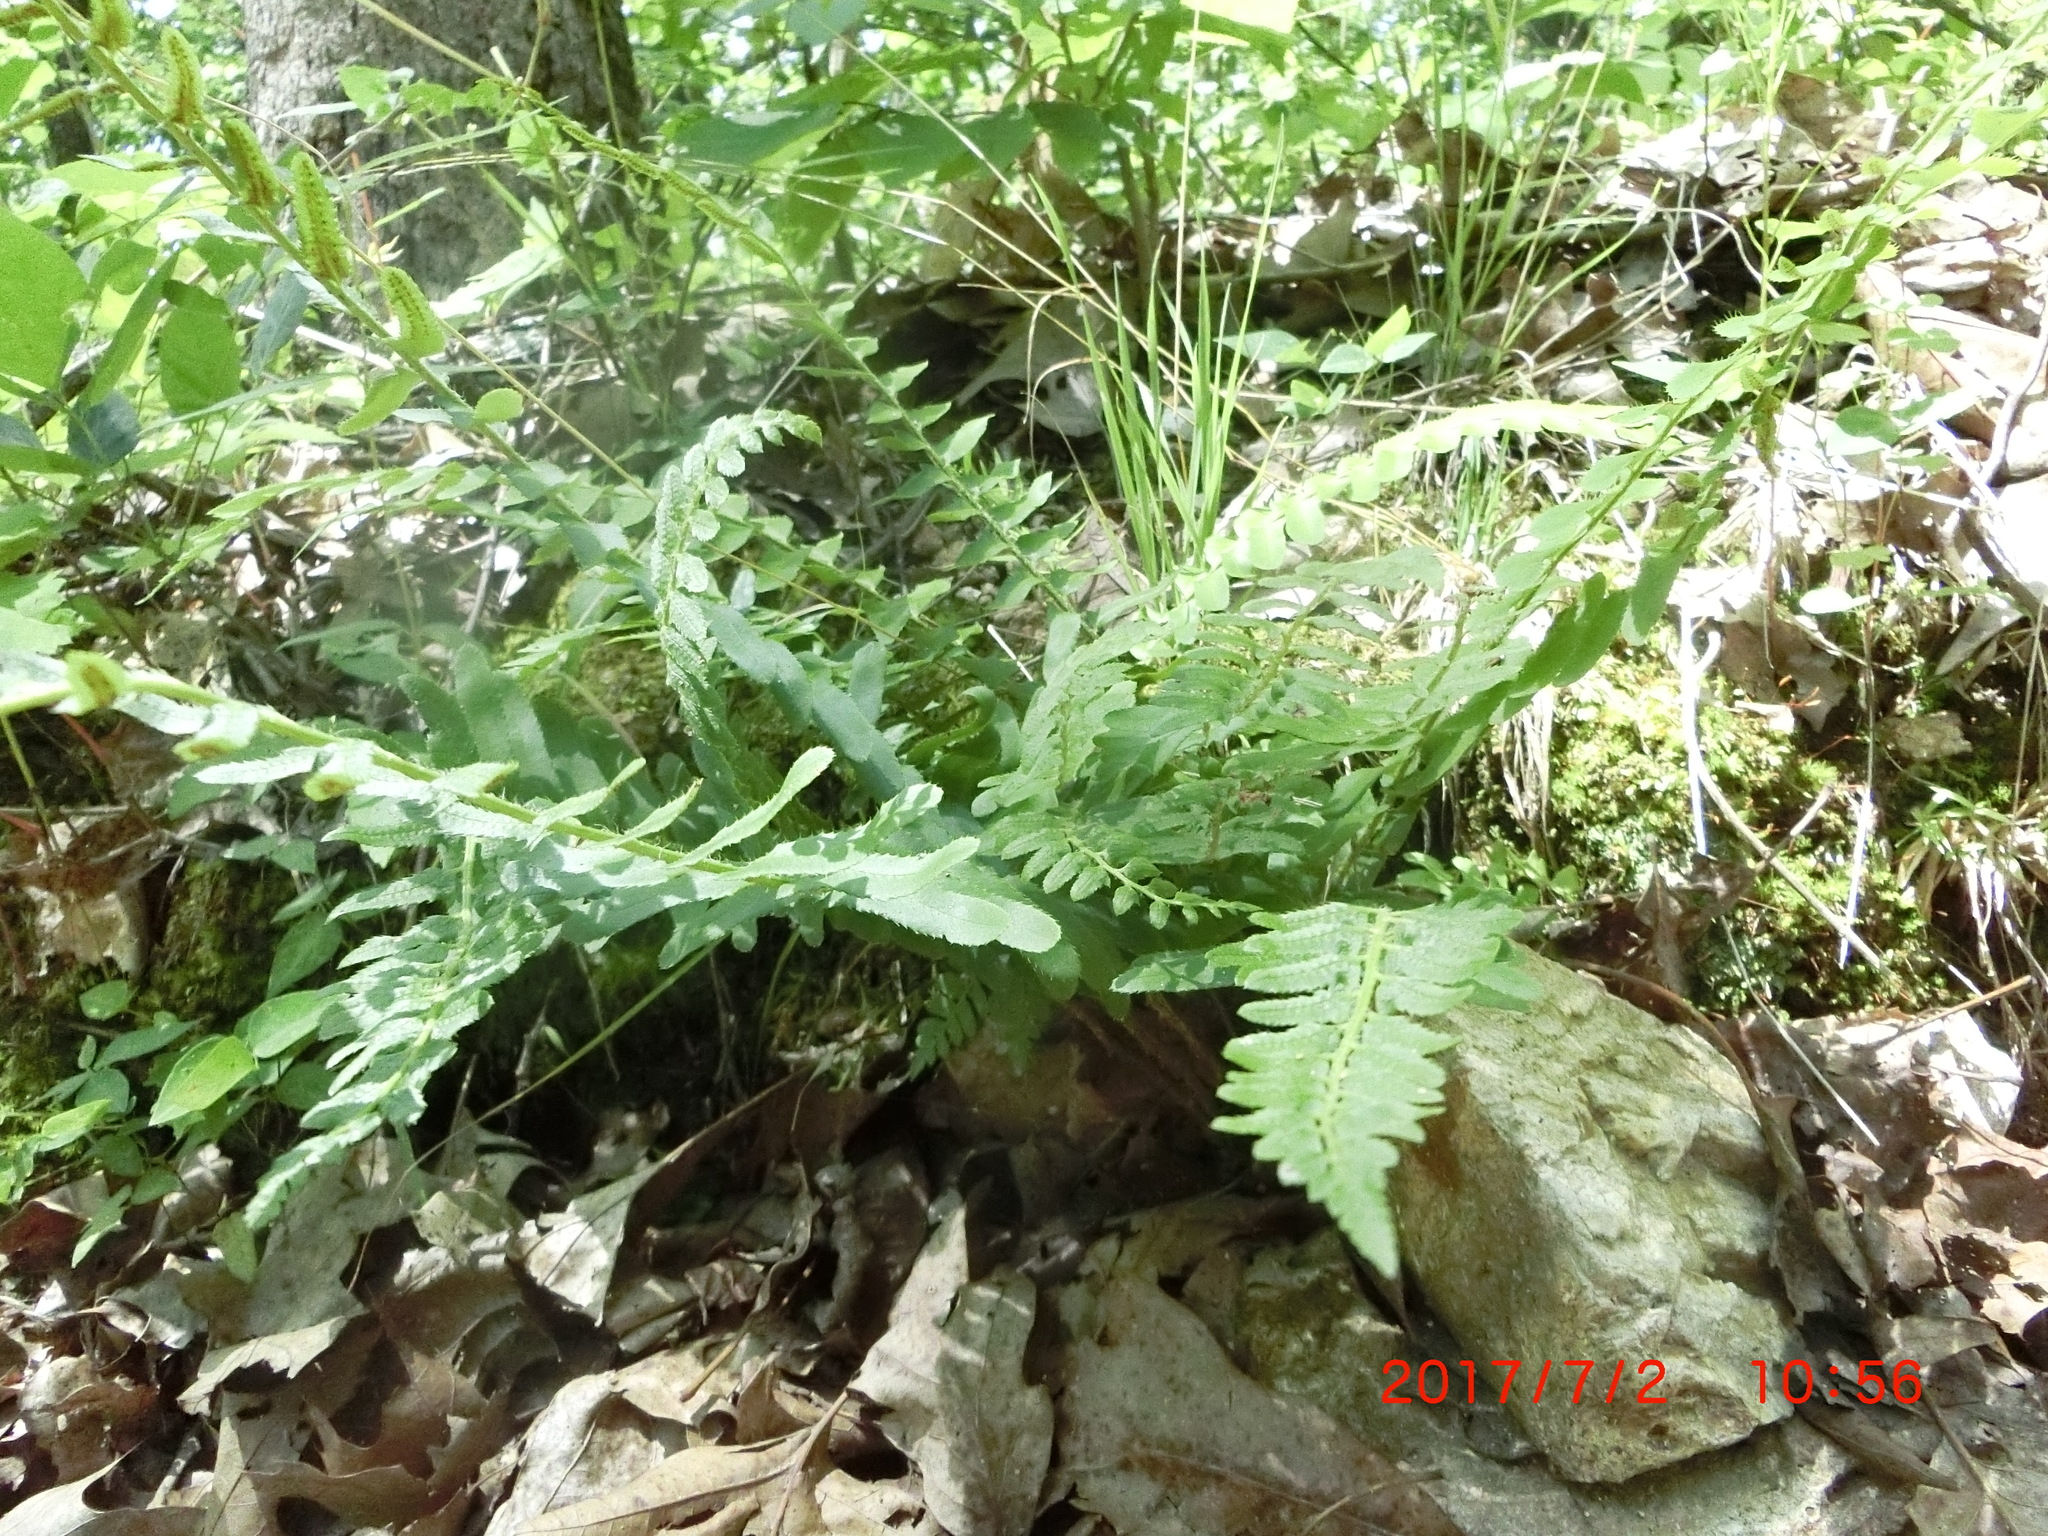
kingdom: Plantae
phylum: Tracheophyta
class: Polypodiopsida
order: Polypodiales
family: Dryopteridaceae
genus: Polystichum
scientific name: Polystichum acrostichoides
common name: Christmas fern
